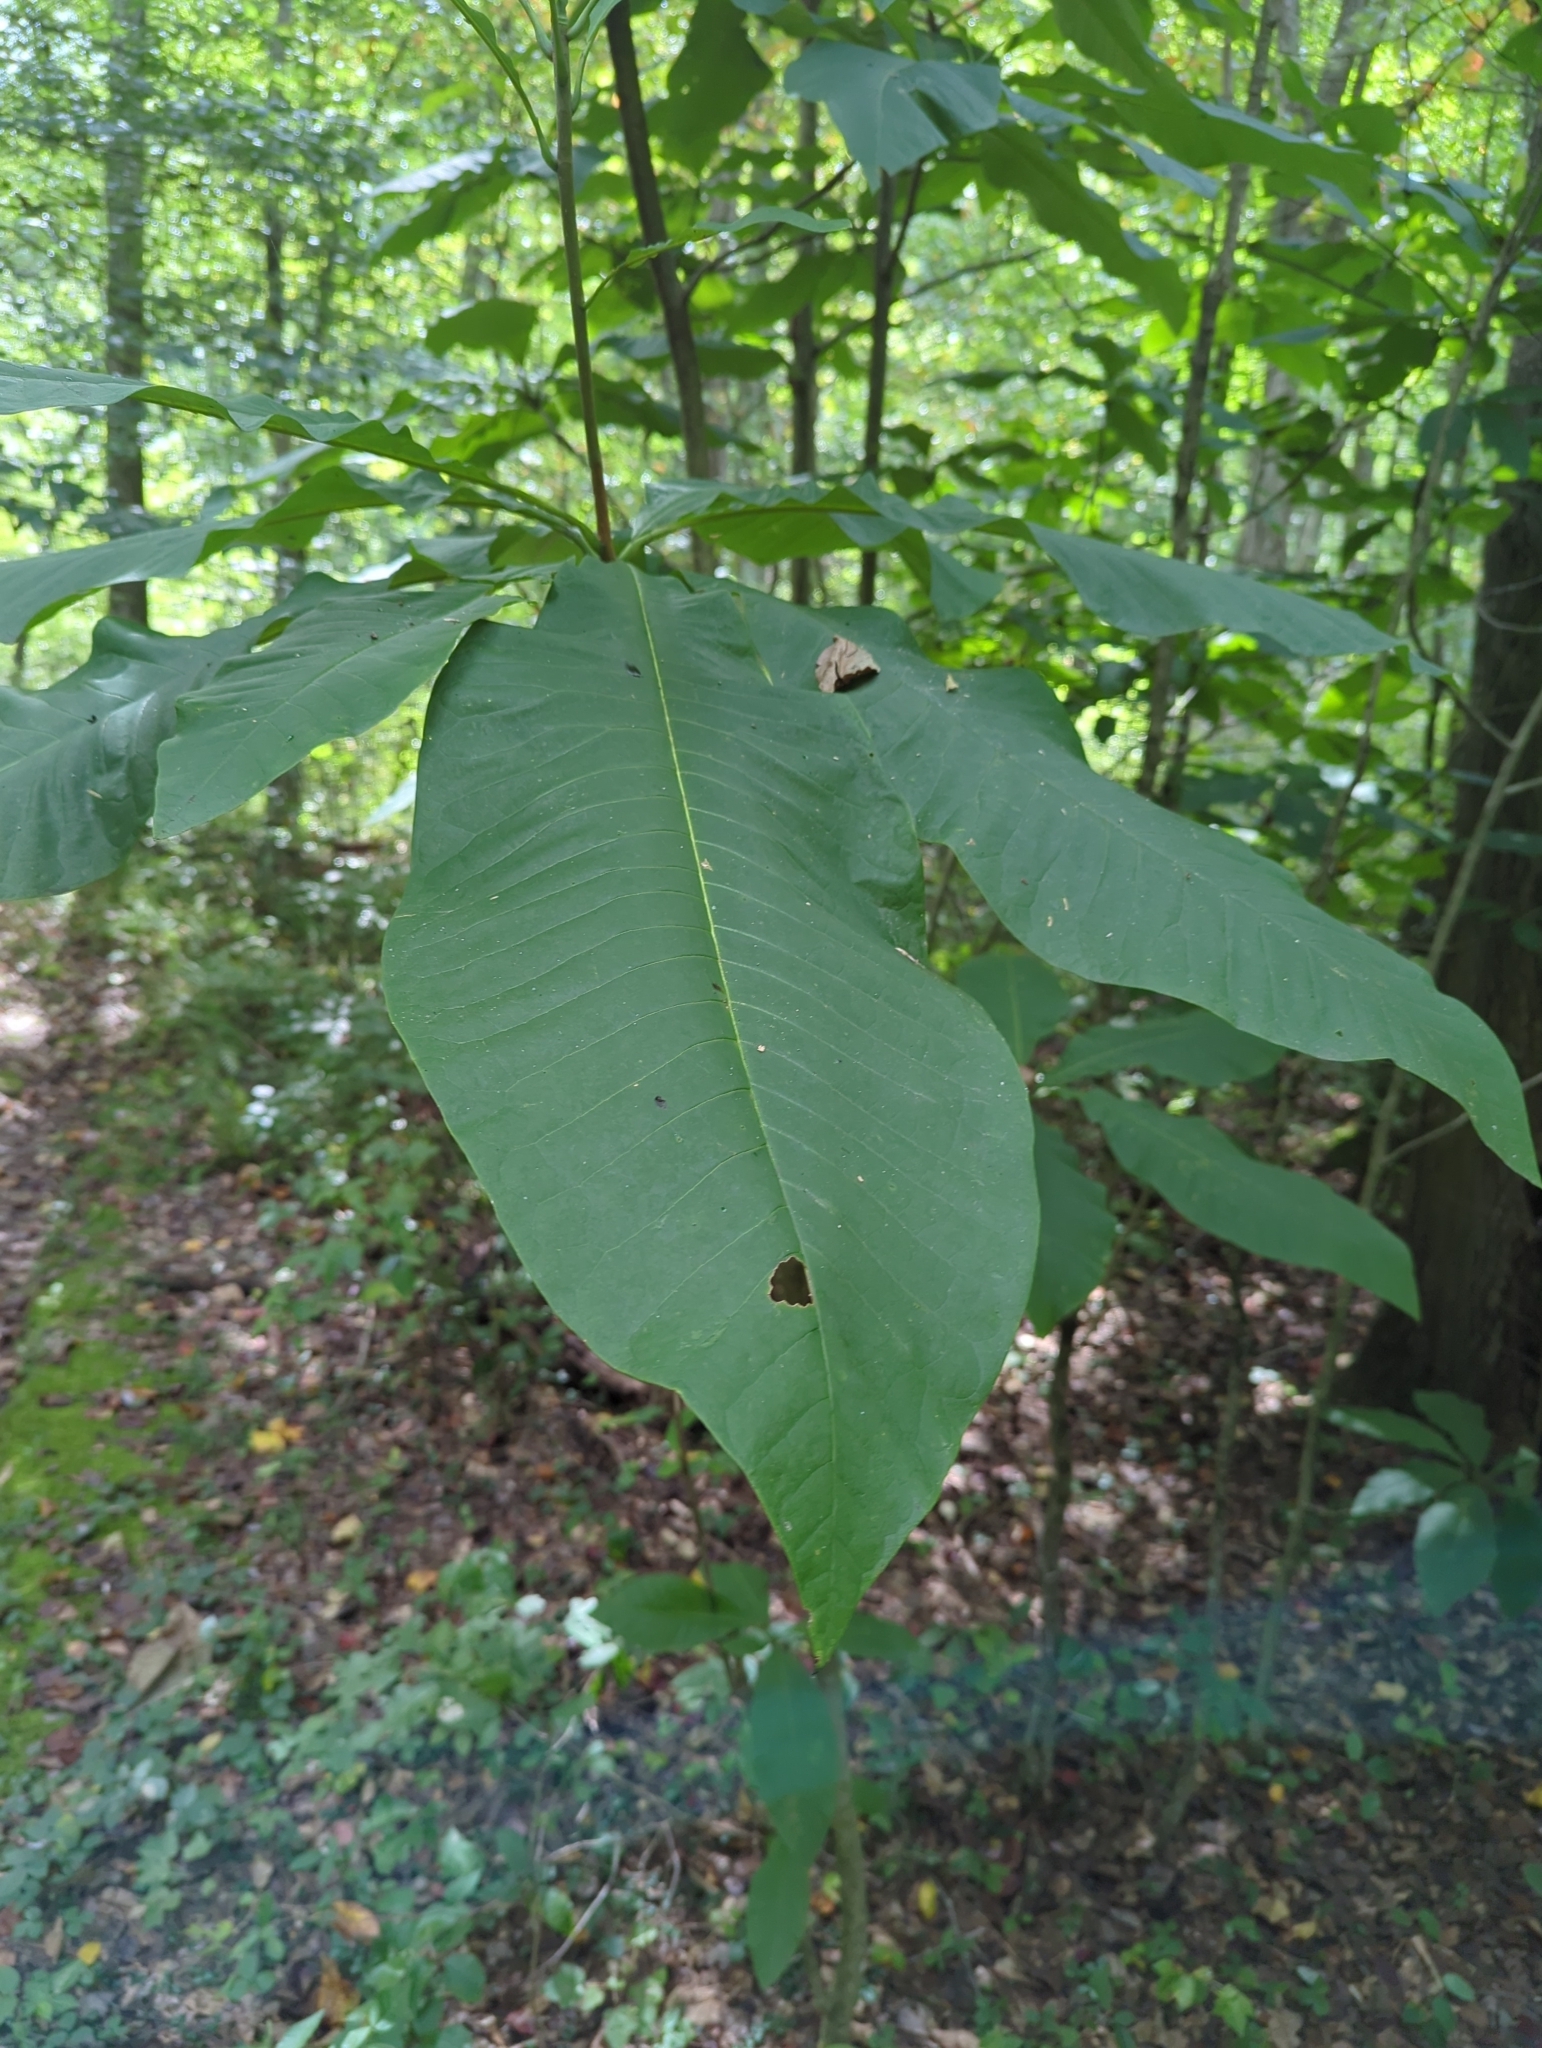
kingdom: Plantae
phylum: Tracheophyta
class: Magnoliopsida
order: Magnoliales
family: Magnoliaceae
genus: Magnolia
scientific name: Magnolia tripetala
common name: Umbrella magnolia
